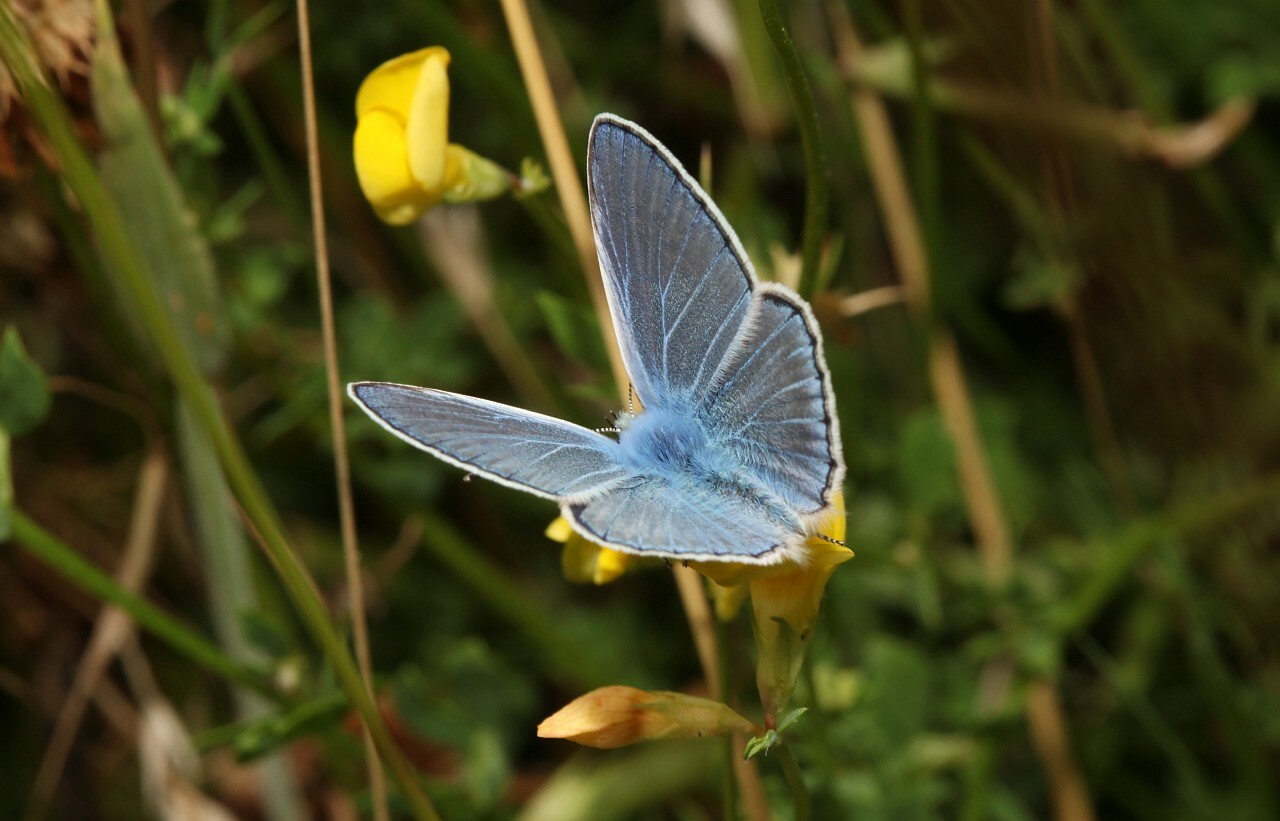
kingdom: Animalia
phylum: Arthropoda
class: Insecta
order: Lepidoptera
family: Lycaenidae
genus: Polyommatus
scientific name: Polyommatus icarus
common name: Common blue
